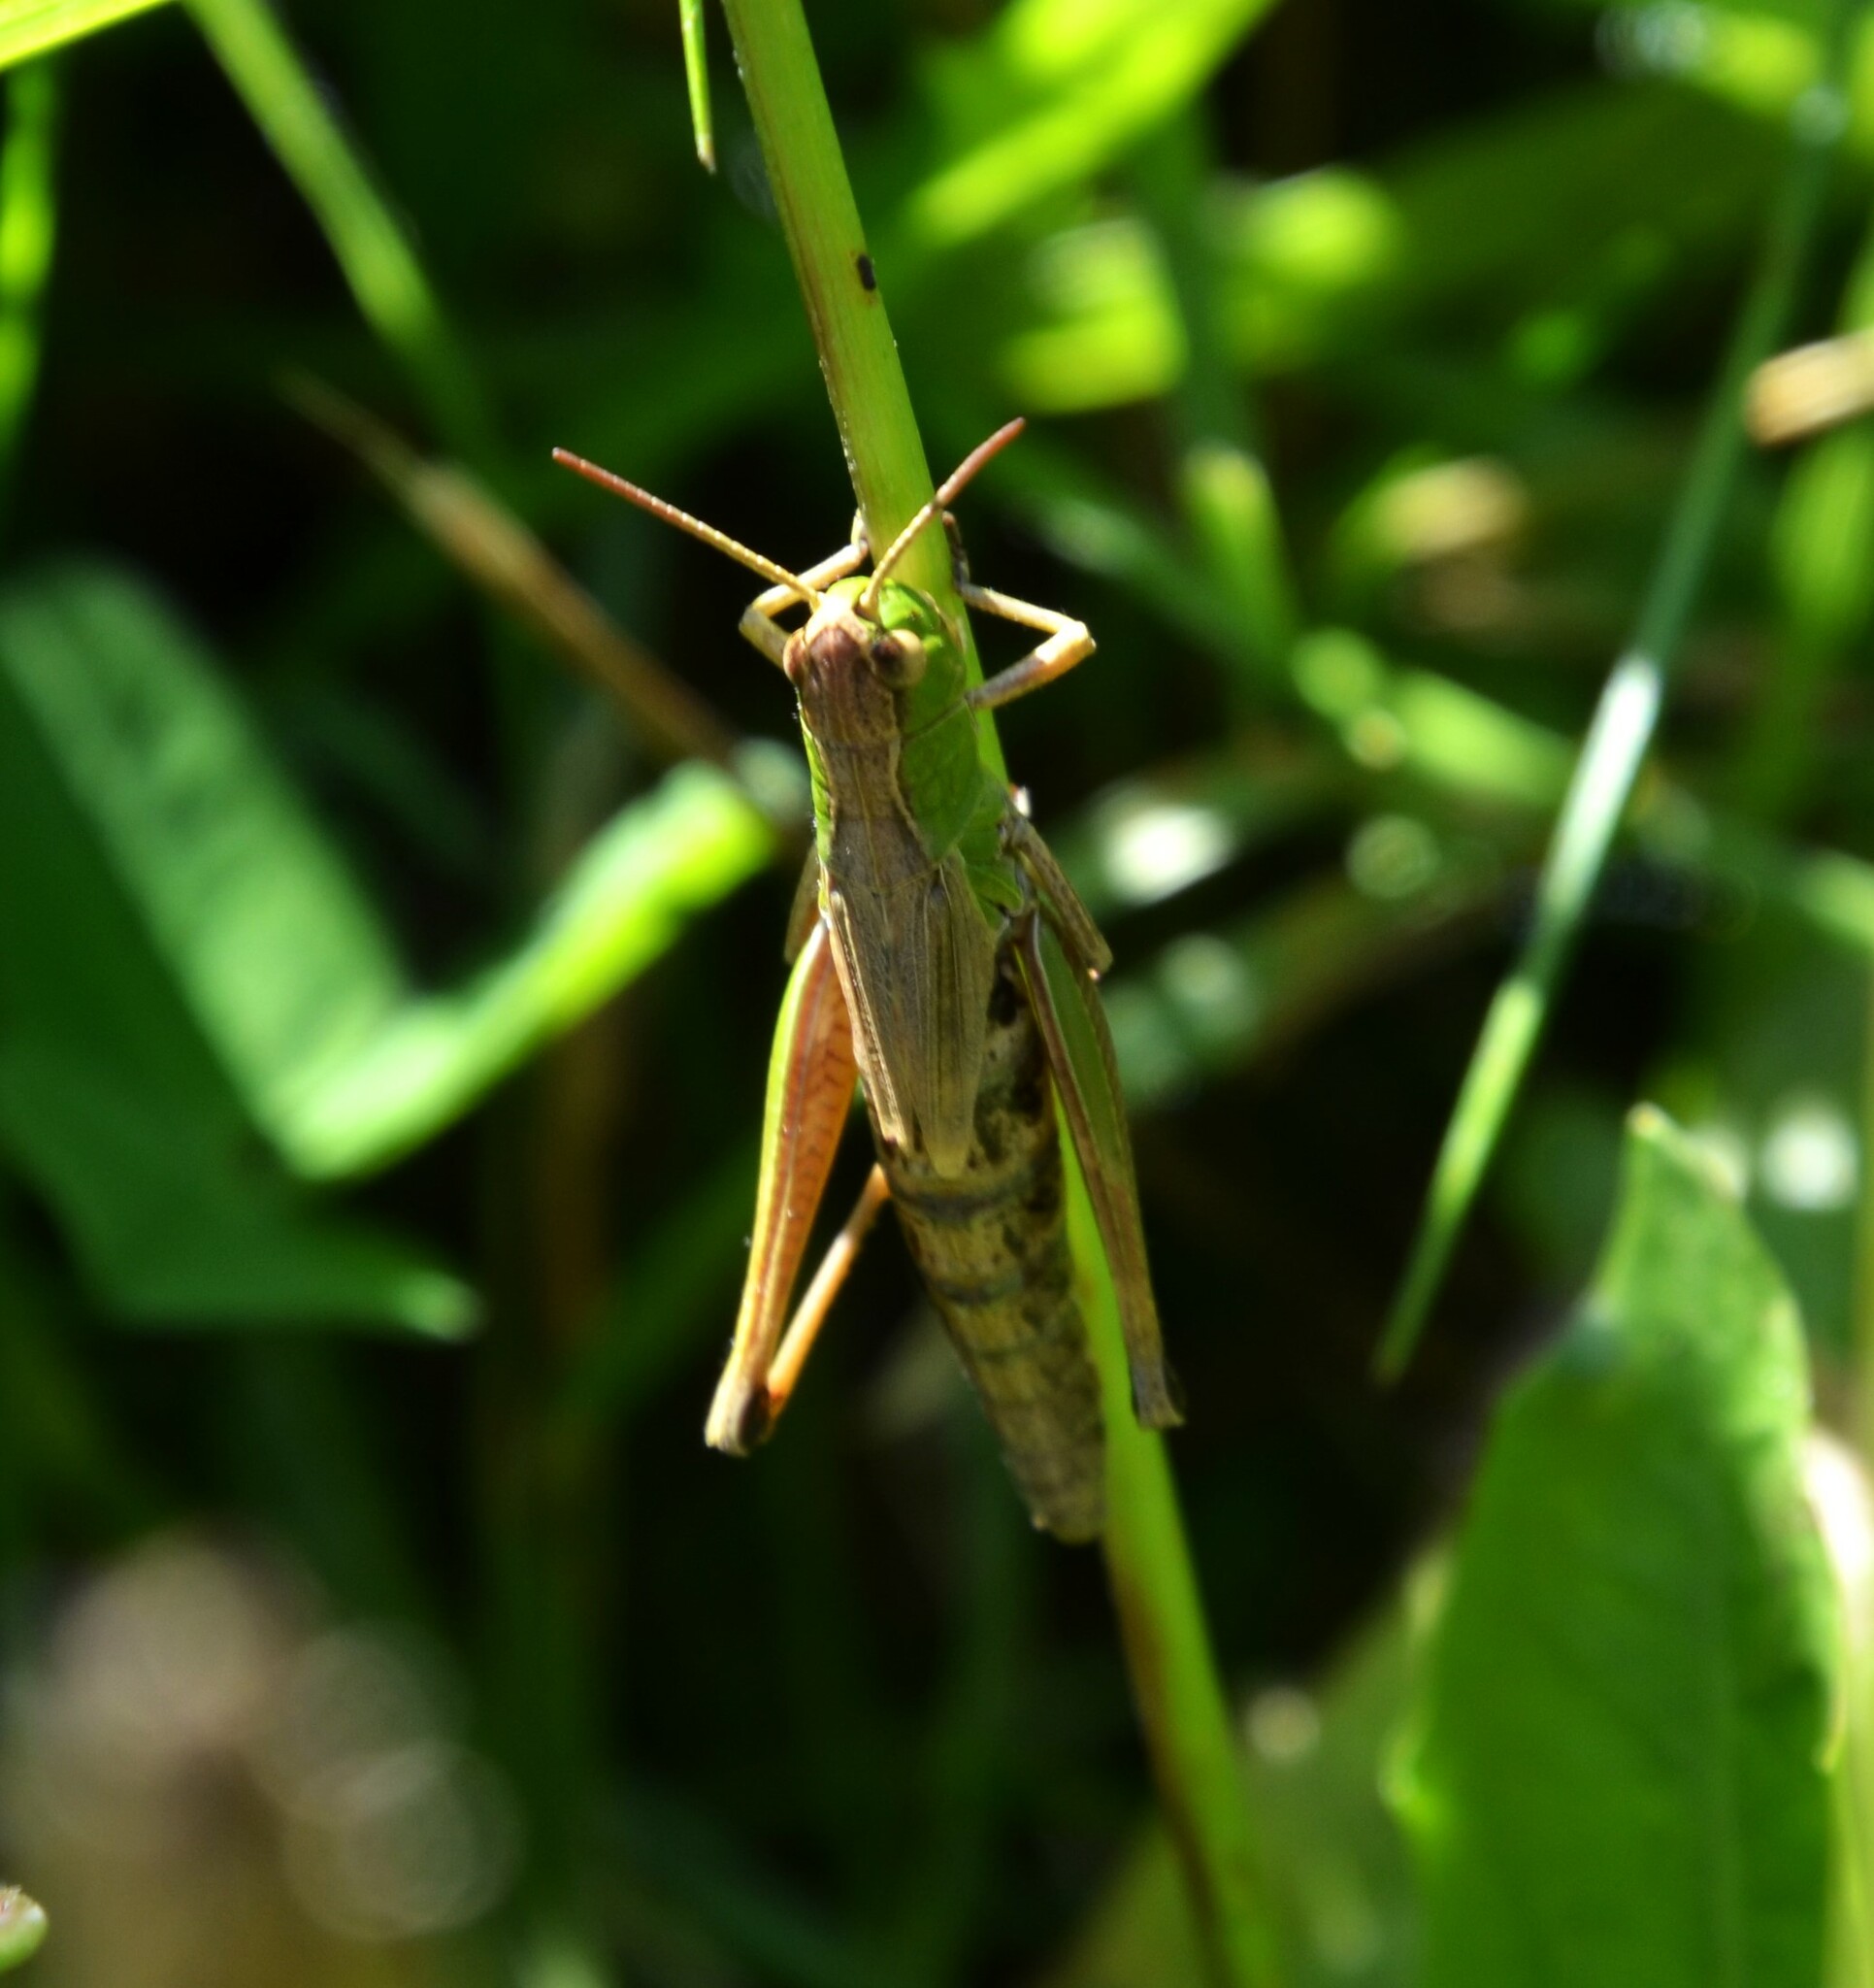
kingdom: Animalia
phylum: Arthropoda
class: Insecta
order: Orthoptera
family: Acrididae
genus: Pseudochorthippus
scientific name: Pseudochorthippus parallelus
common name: Meadow grasshopper
